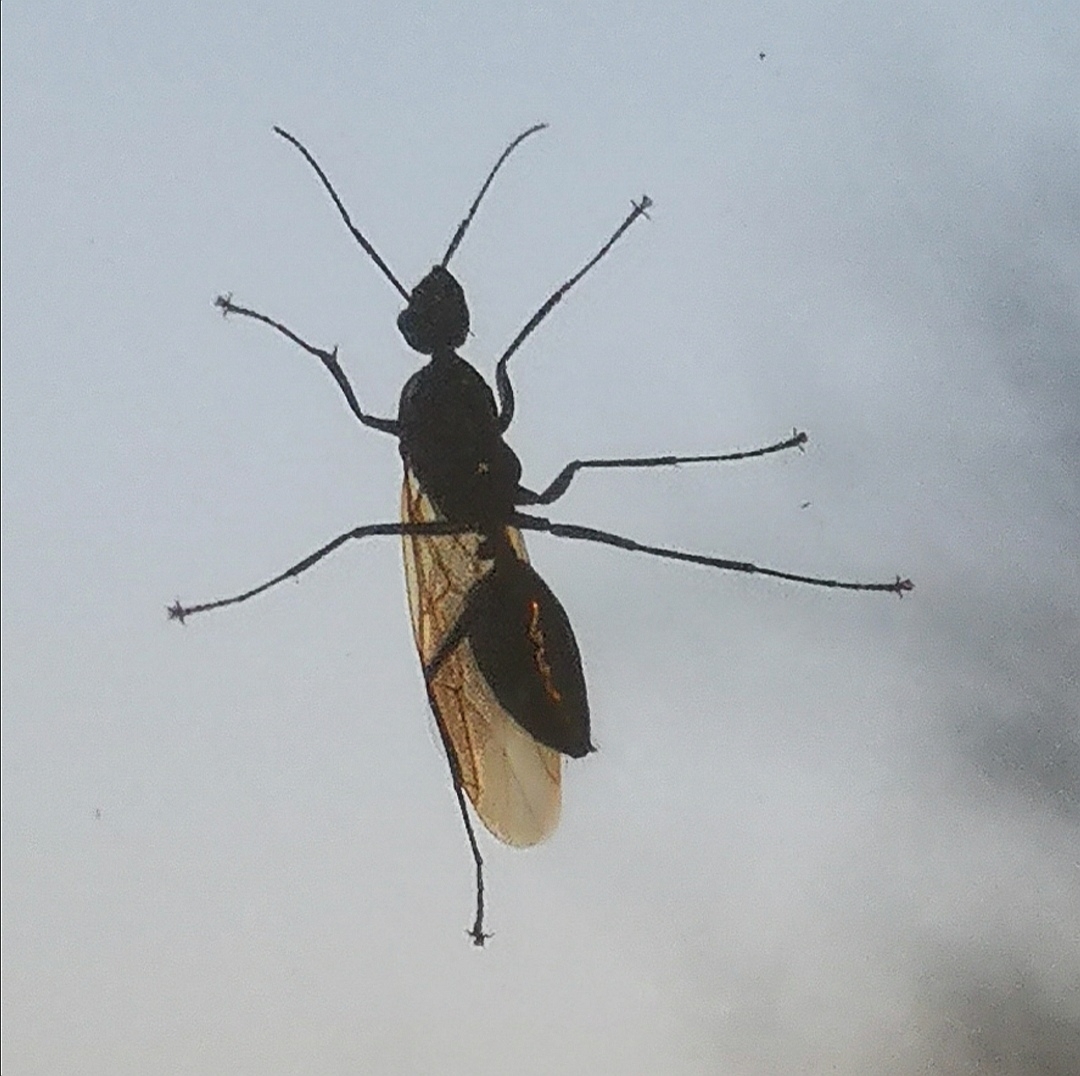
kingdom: Animalia
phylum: Arthropoda
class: Insecta
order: Hymenoptera
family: Formicidae
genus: Camponotus
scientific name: Camponotus pennsylvanicus
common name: Black carpenter ant
